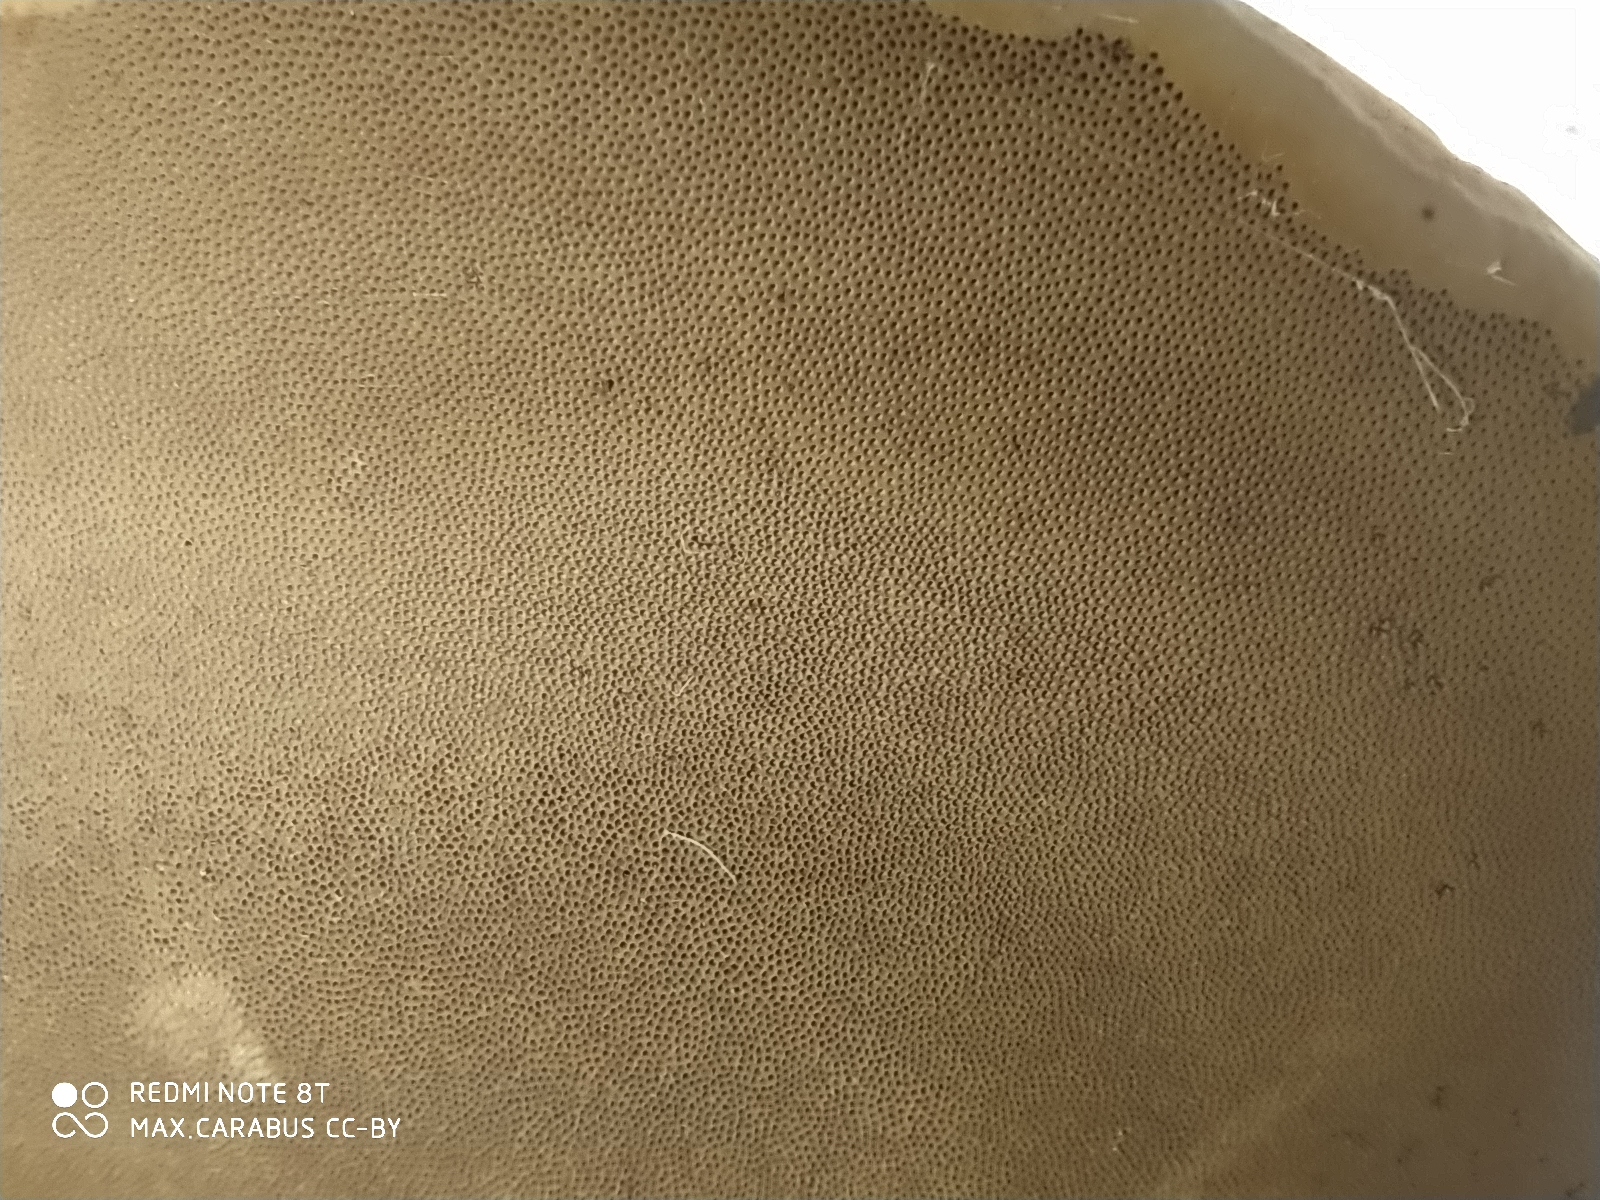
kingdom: Fungi
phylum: Basidiomycota
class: Agaricomycetes
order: Polyporales
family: Polyporaceae
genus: Fomes
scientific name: Fomes fomentarius
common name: Hoof fungus
